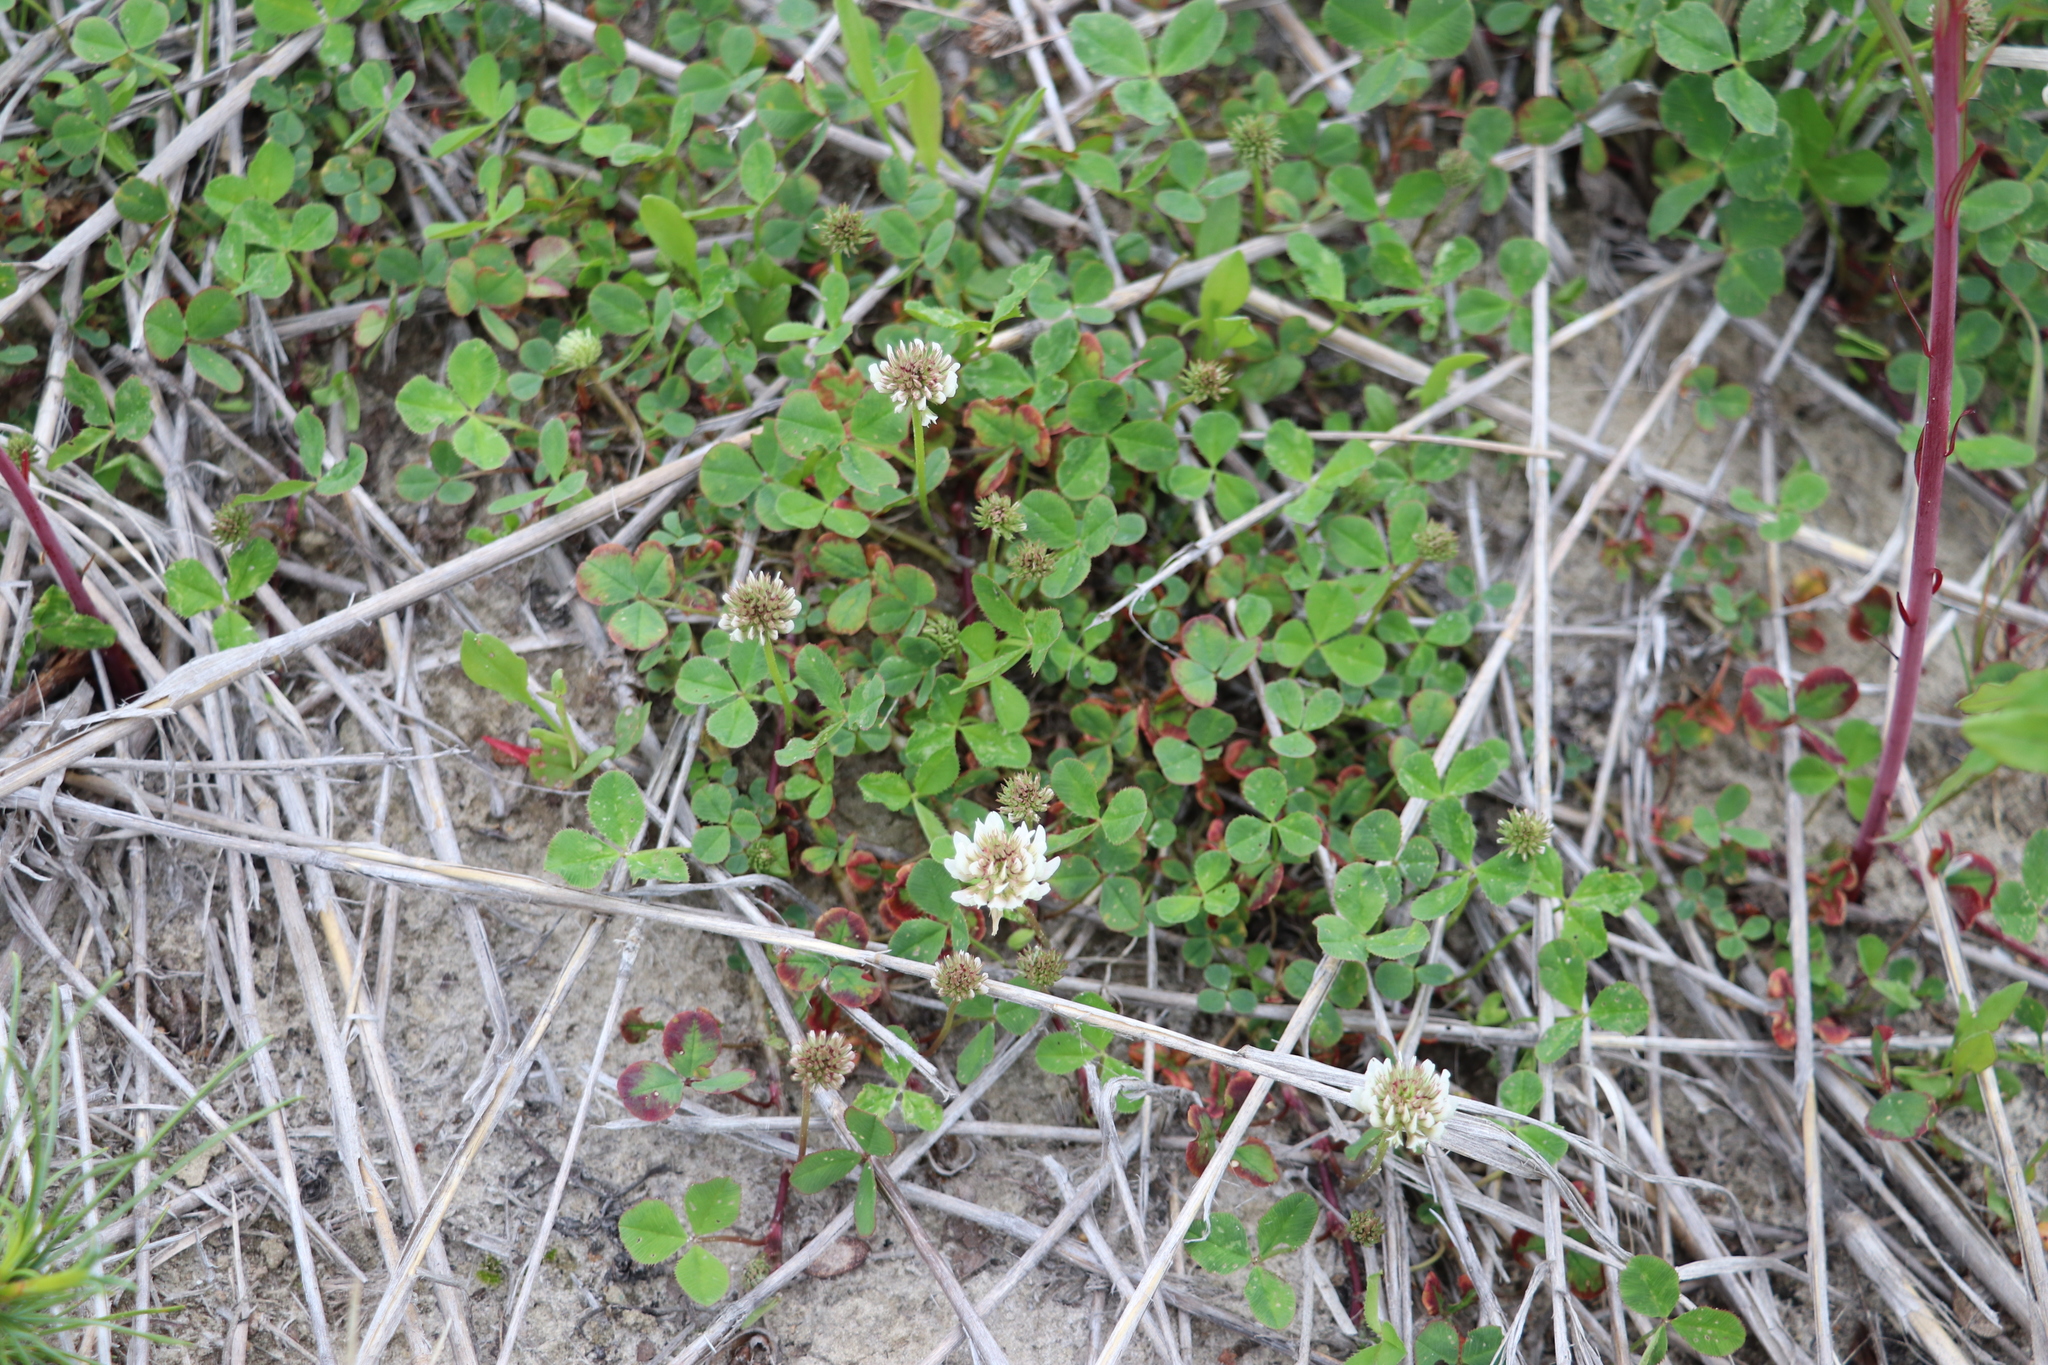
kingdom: Plantae
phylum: Tracheophyta
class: Magnoliopsida
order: Fabales
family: Fabaceae
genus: Trifolium
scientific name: Trifolium repens
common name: White clover
